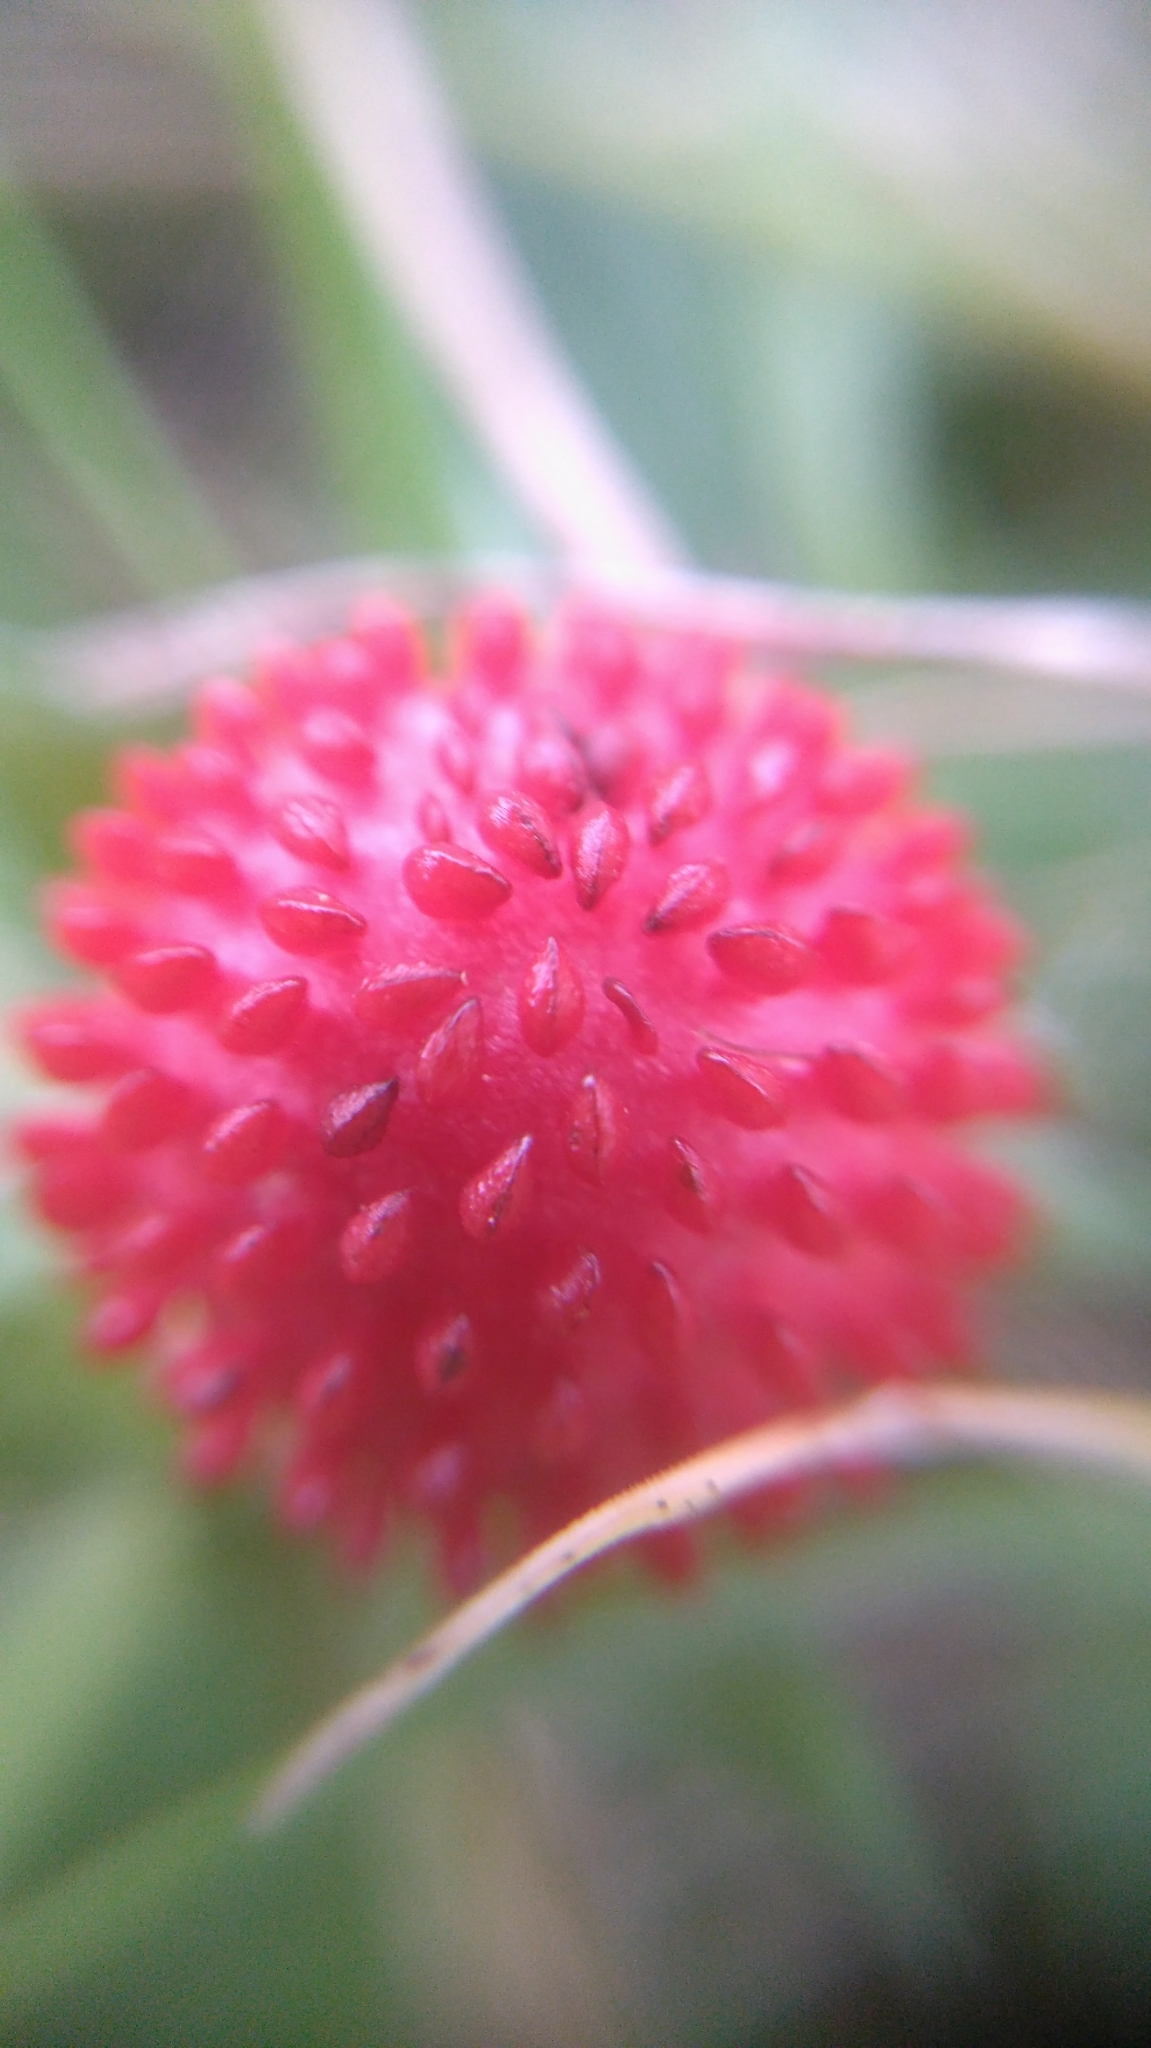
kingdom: Plantae
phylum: Tracheophyta
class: Magnoliopsida
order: Rosales
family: Rosaceae
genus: Potentilla
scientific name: Potentilla indica
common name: Yellow-flowered strawberry
